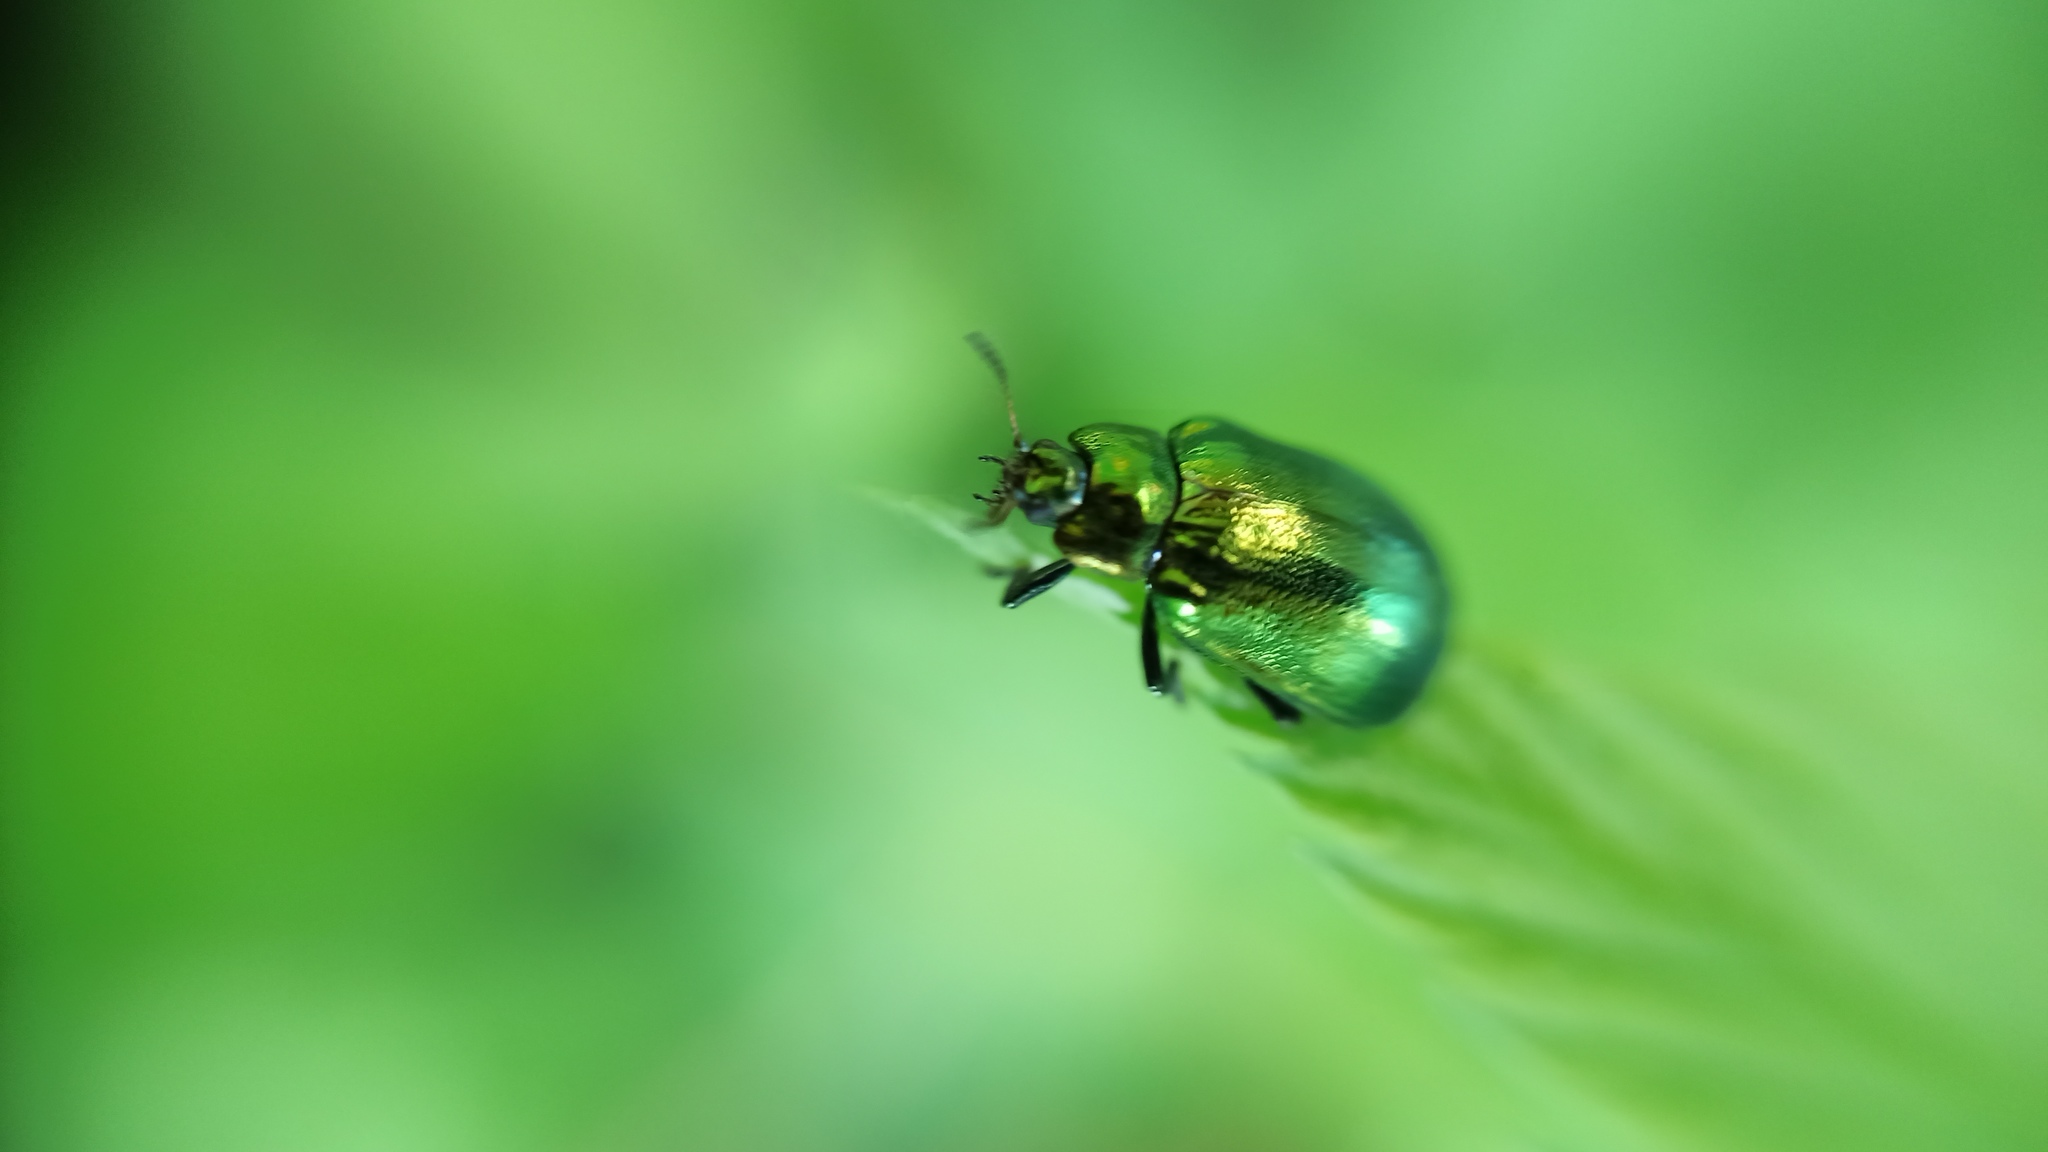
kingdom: Animalia
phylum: Arthropoda
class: Insecta
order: Coleoptera
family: Chrysomelidae
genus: Plagiosterna
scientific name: Plagiosterna aenea
